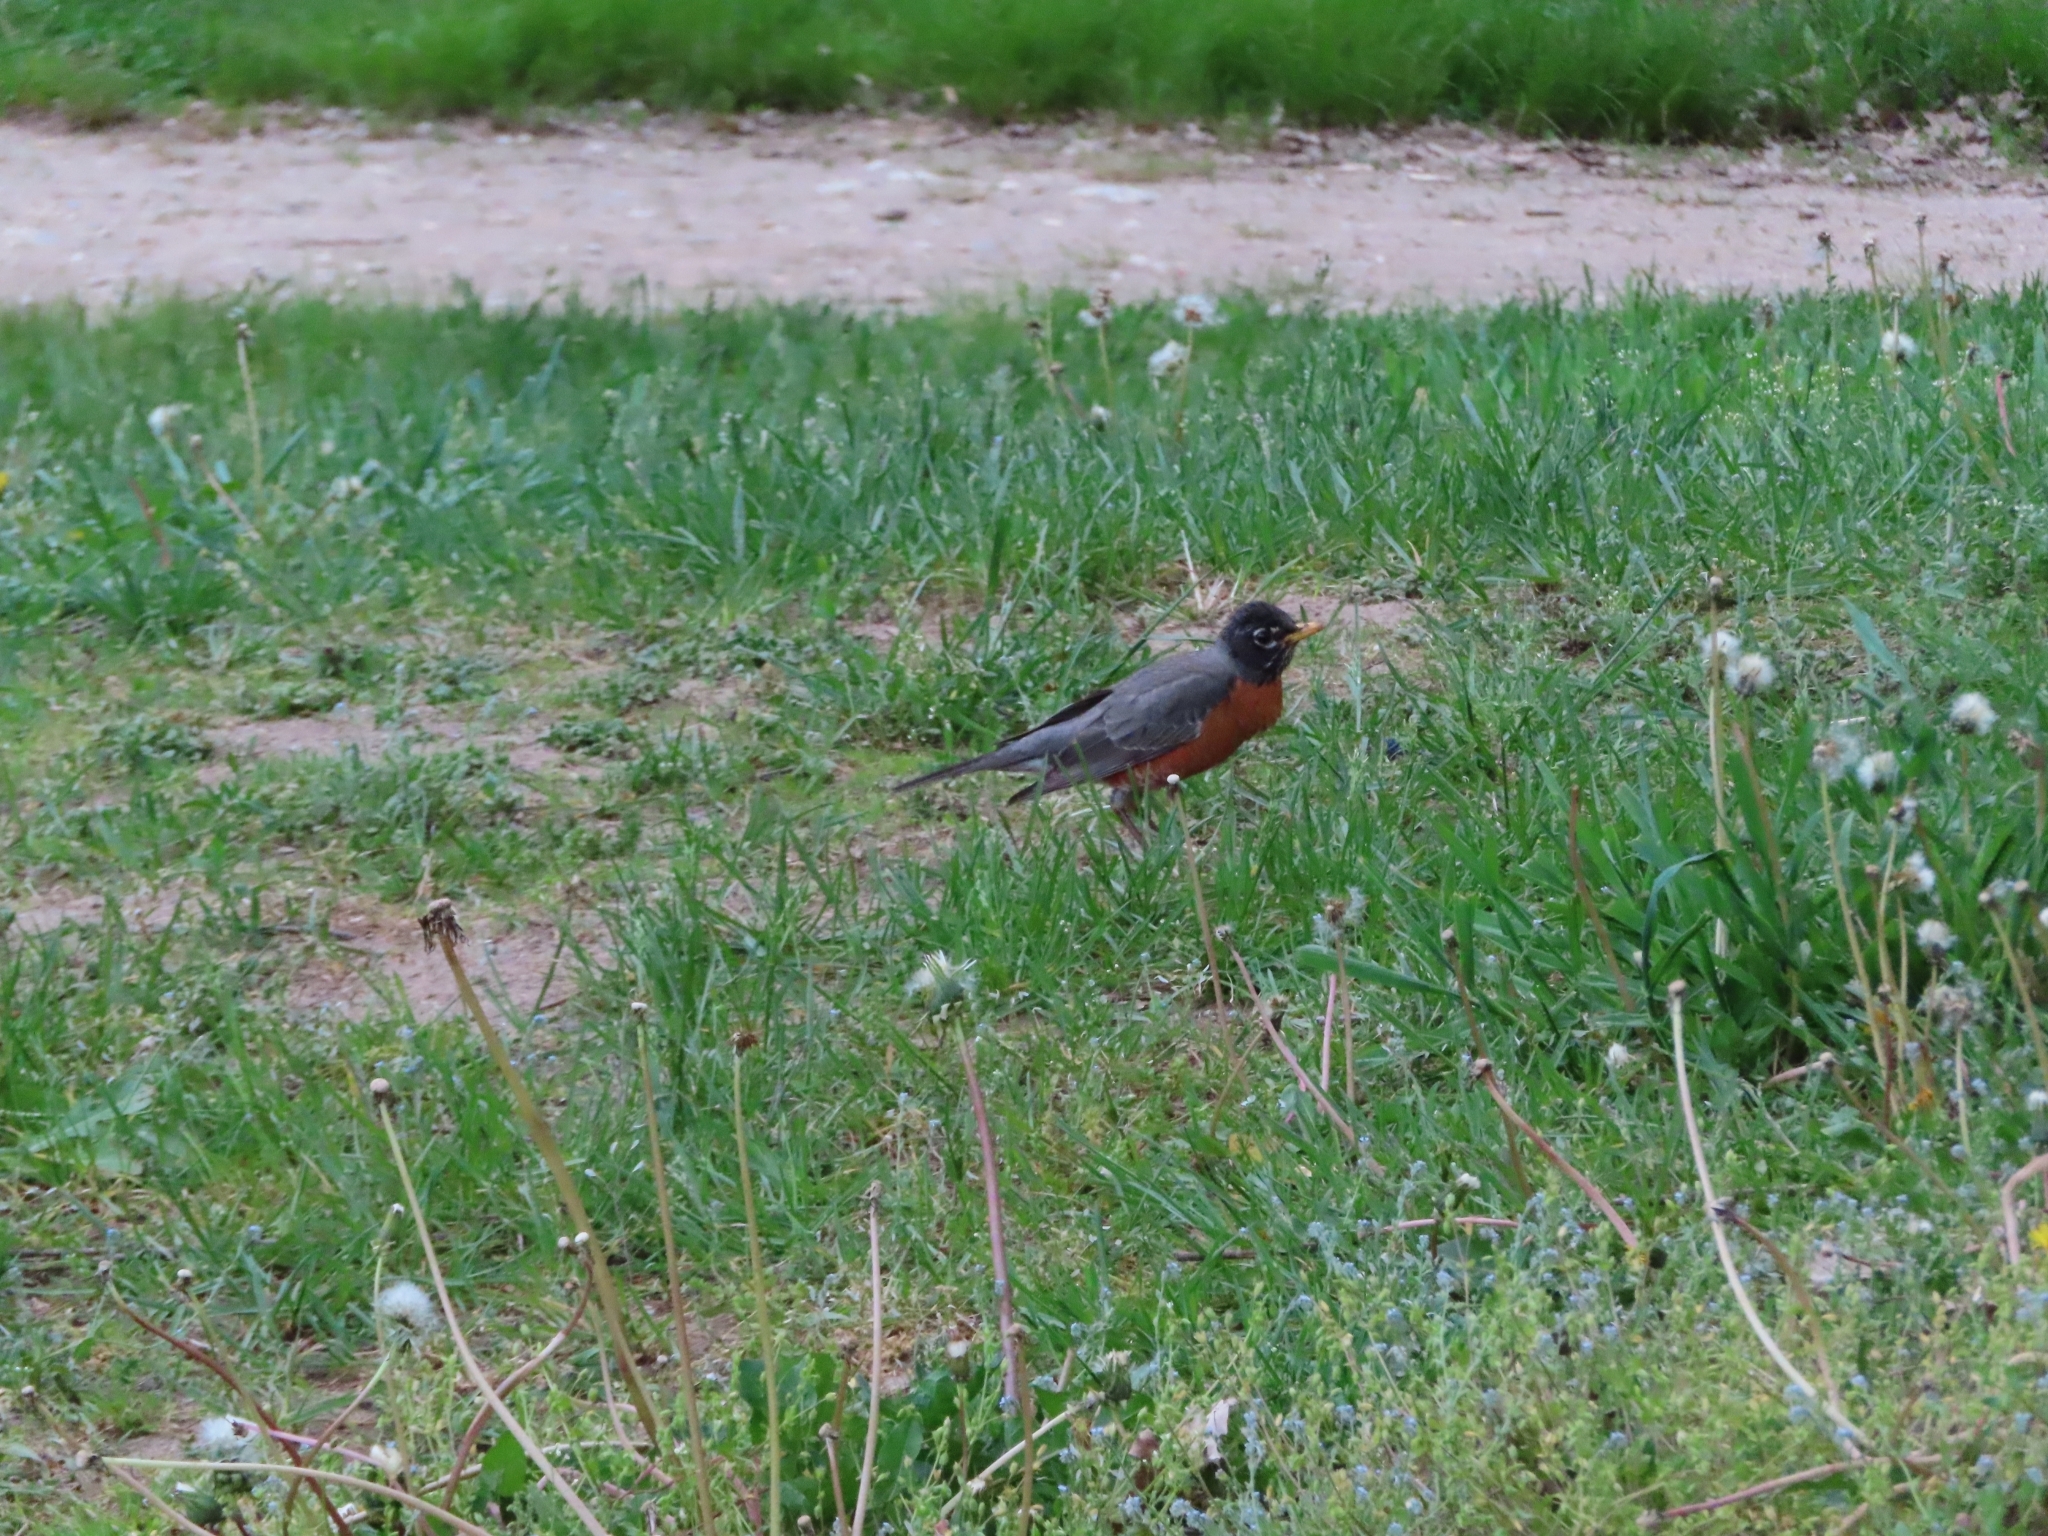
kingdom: Animalia
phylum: Chordata
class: Aves
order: Passeriformes
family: Turdidae
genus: Turdus
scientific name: Turdus migratorius
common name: American robin
